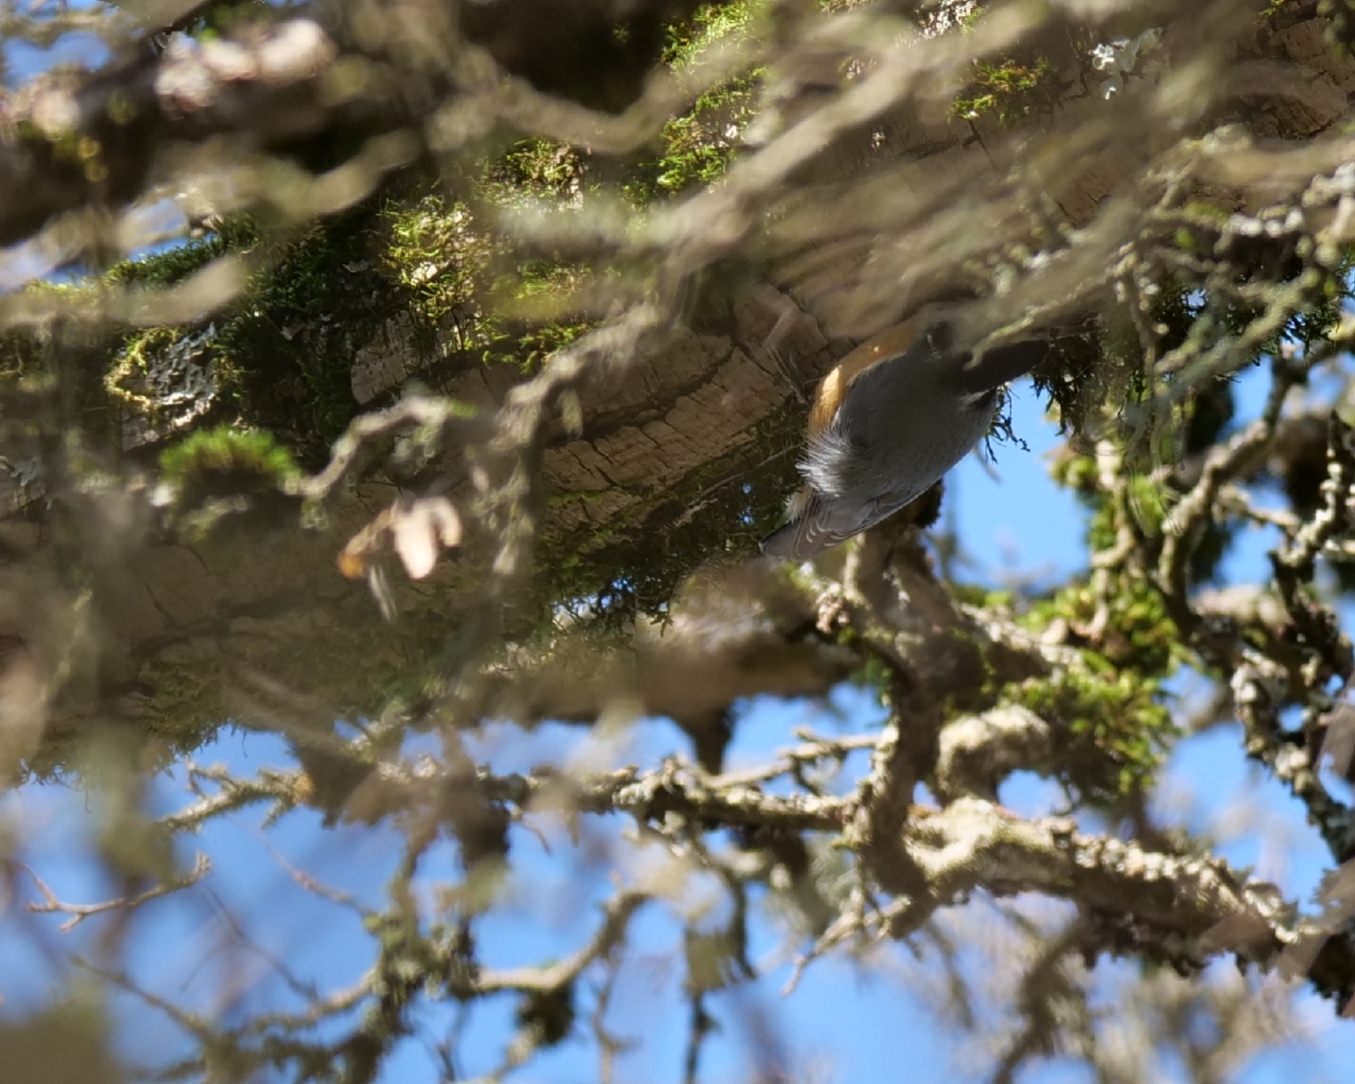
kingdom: Animalia
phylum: Chordata
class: Aves
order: Passeriformes
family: Sittidae
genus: Sitta
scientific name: Sitta canadensis
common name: Red-breasted nuthatch
